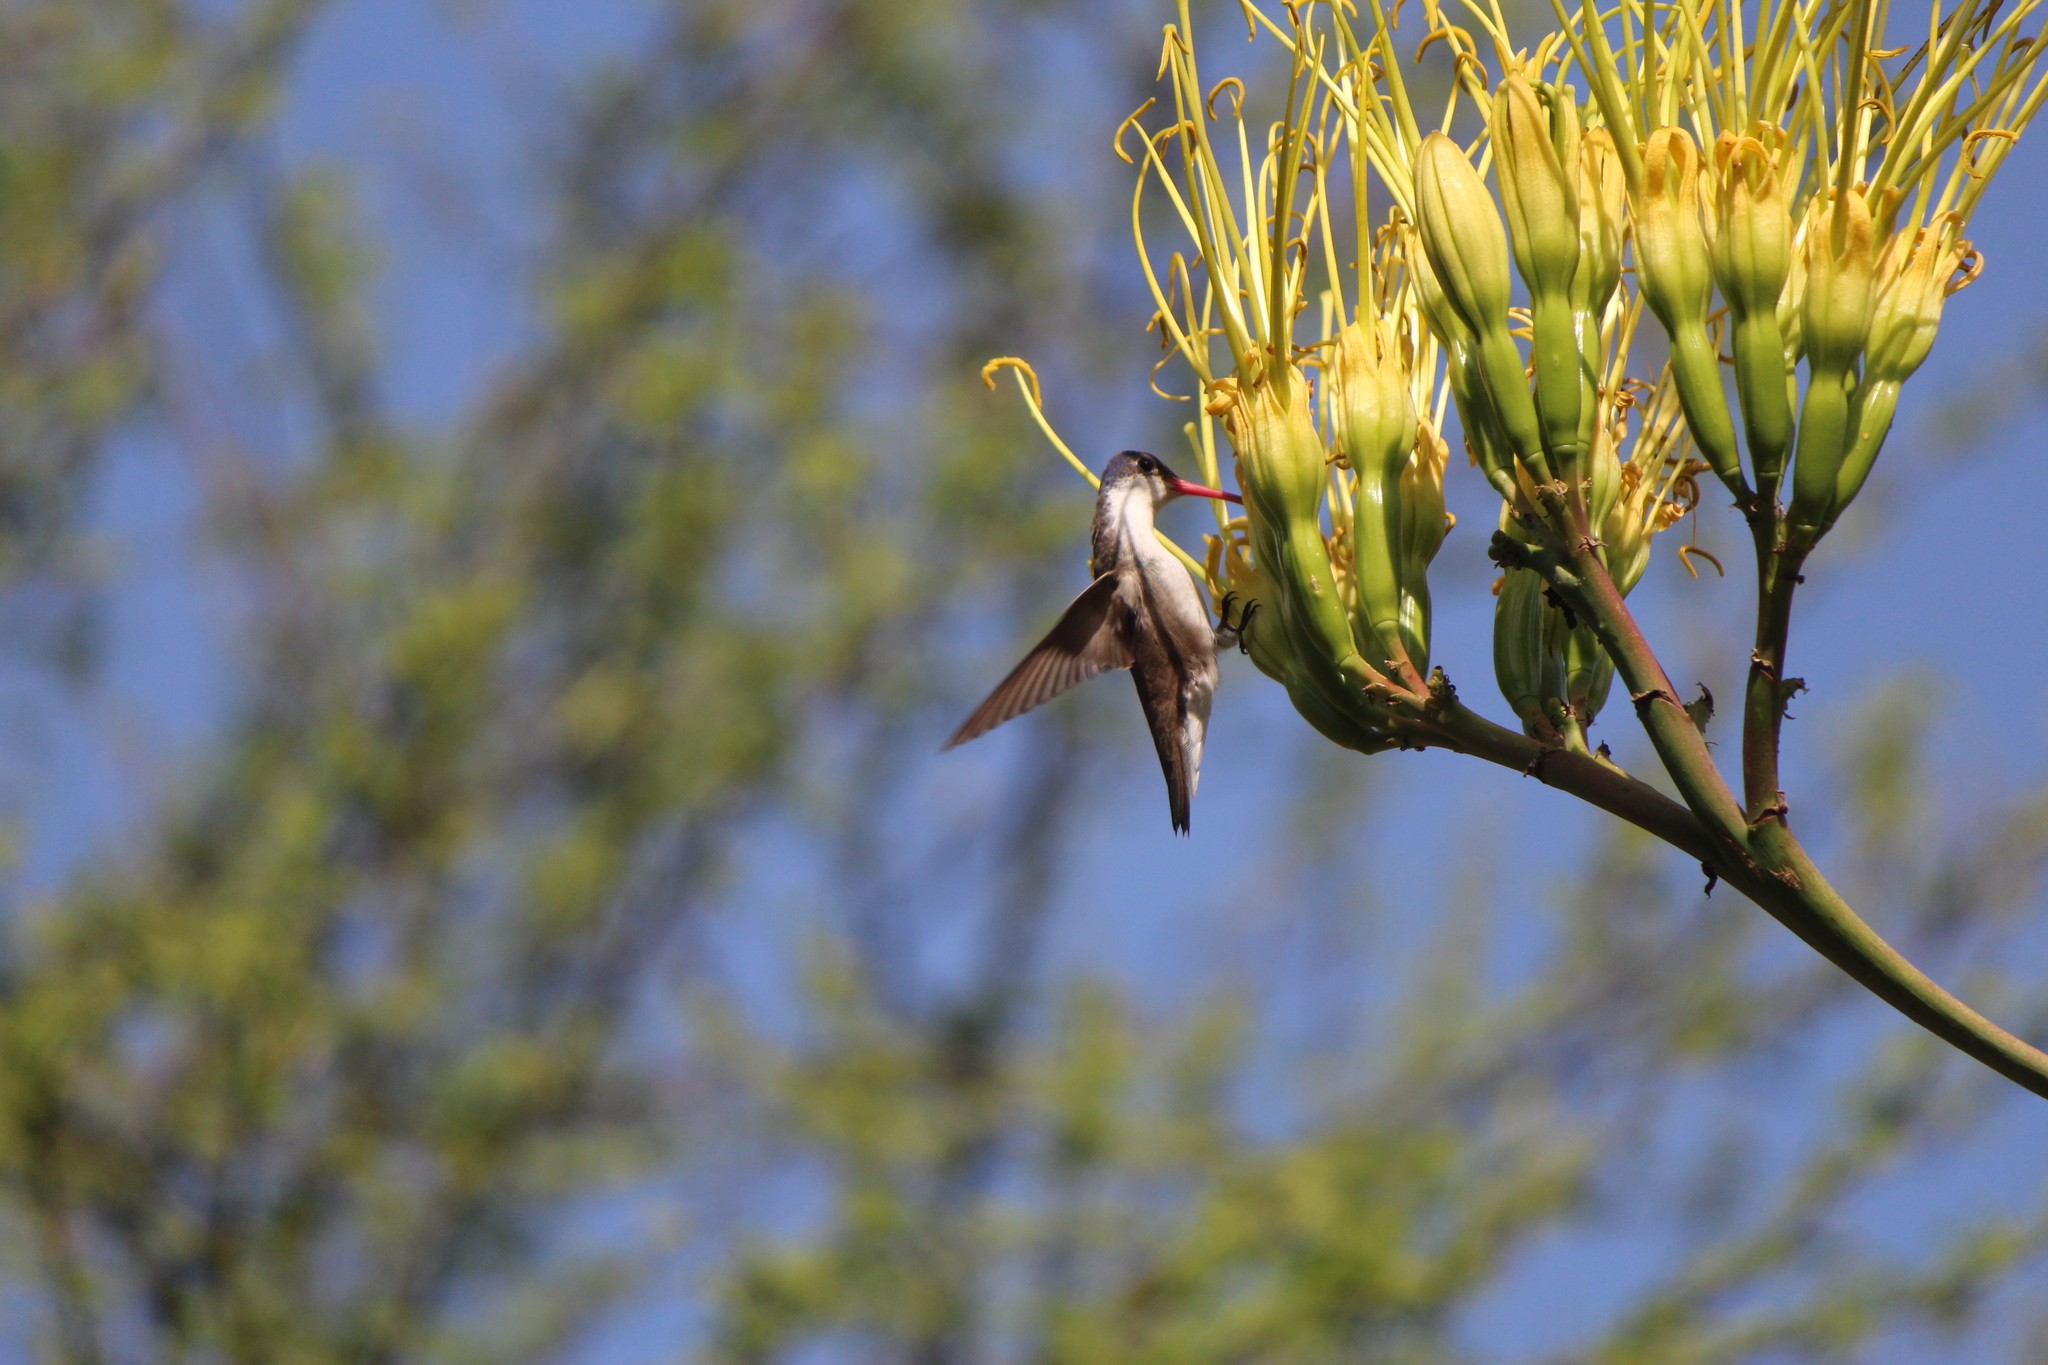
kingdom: Animalia
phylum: Chordata
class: Aves
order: Apodiformes
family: Trochilidae
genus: Leucolia
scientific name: Leucolia violiceps
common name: Violet-crowned hummingbird
